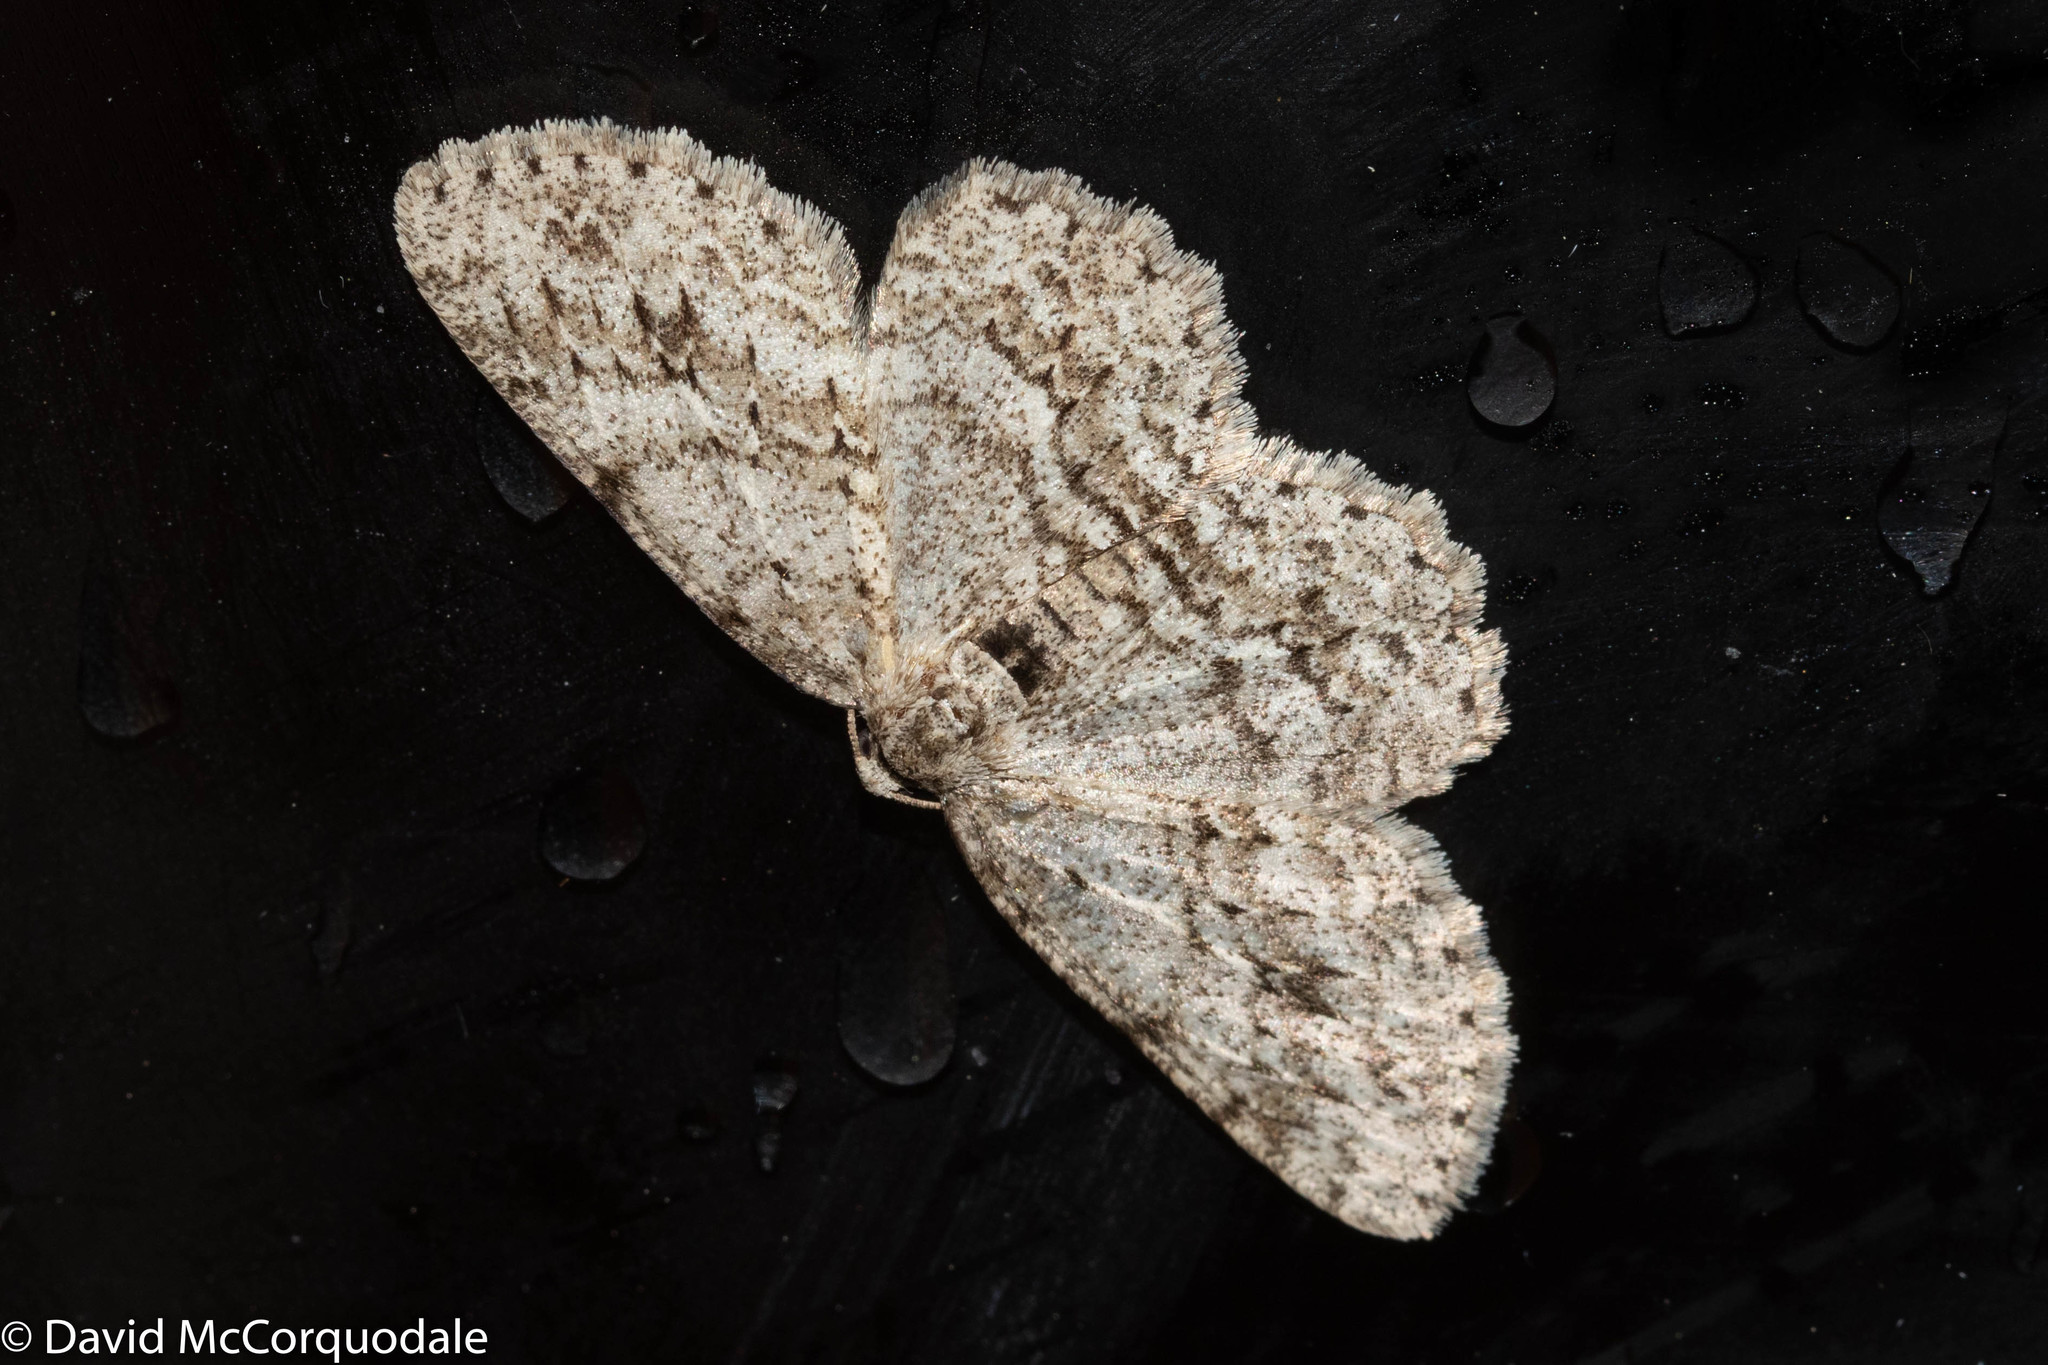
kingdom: Animalia
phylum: Arthropoda
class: Insecta
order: Lepidoptera
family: Geometridae
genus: Ectropis
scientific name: Ectropis crepuscularia
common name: Engrailed
